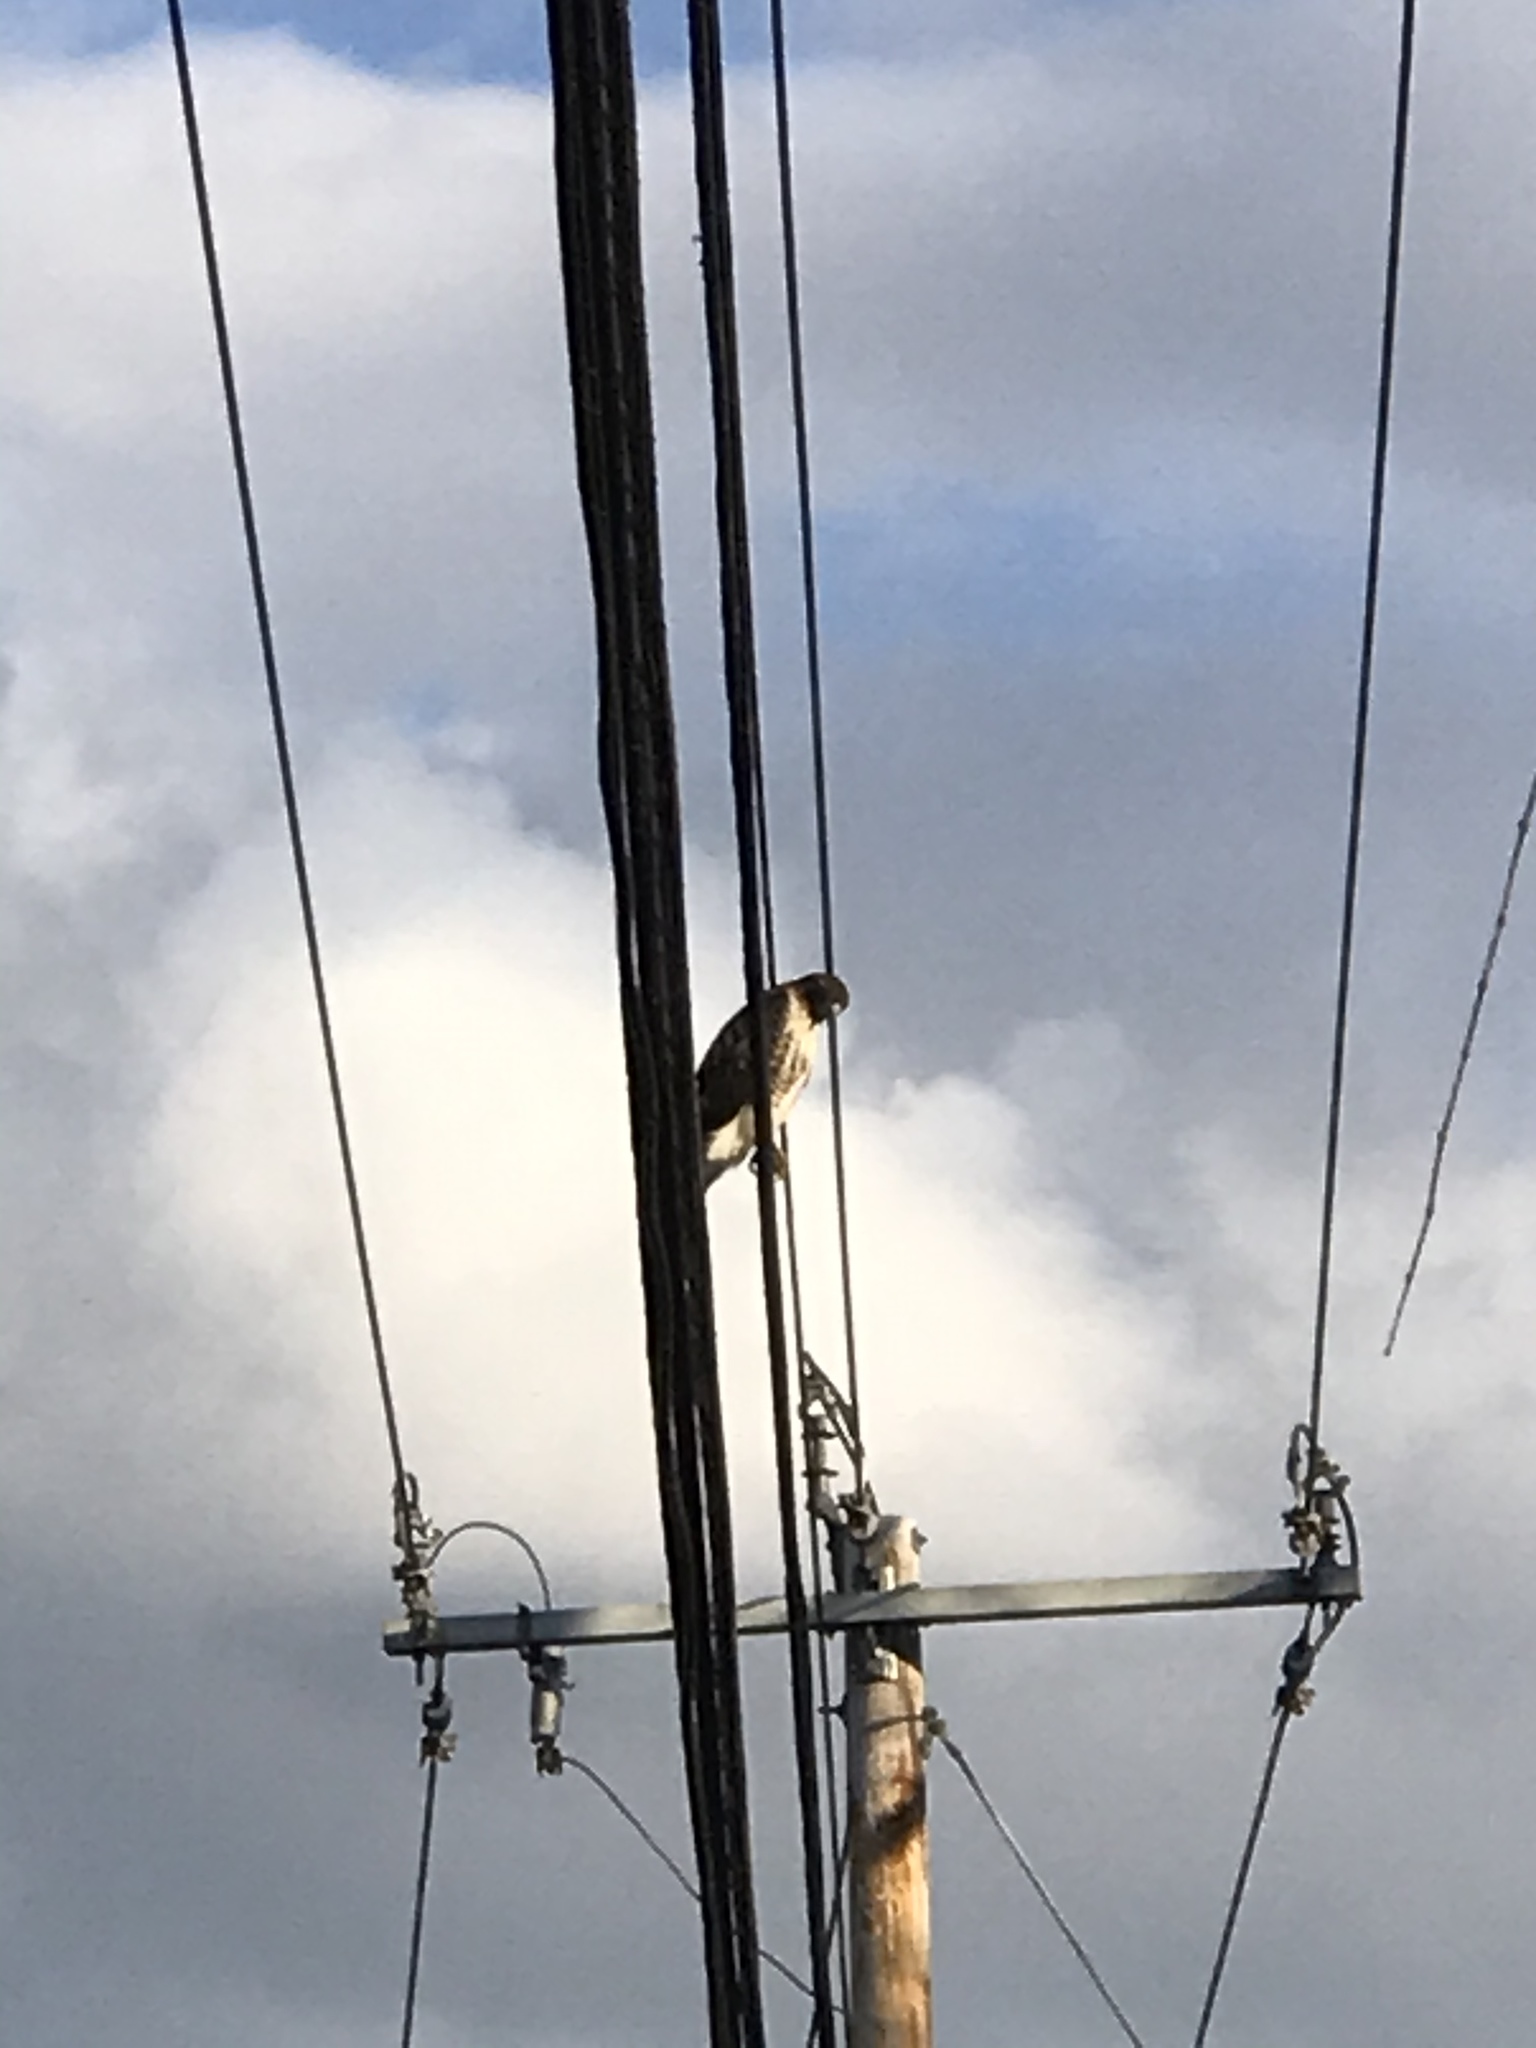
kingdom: Animalia
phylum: Chordata
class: Aves
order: Accipitriformes
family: Accipitridae
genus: Buteo
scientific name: Buteo jamaicensis
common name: Red-tailed hawk
